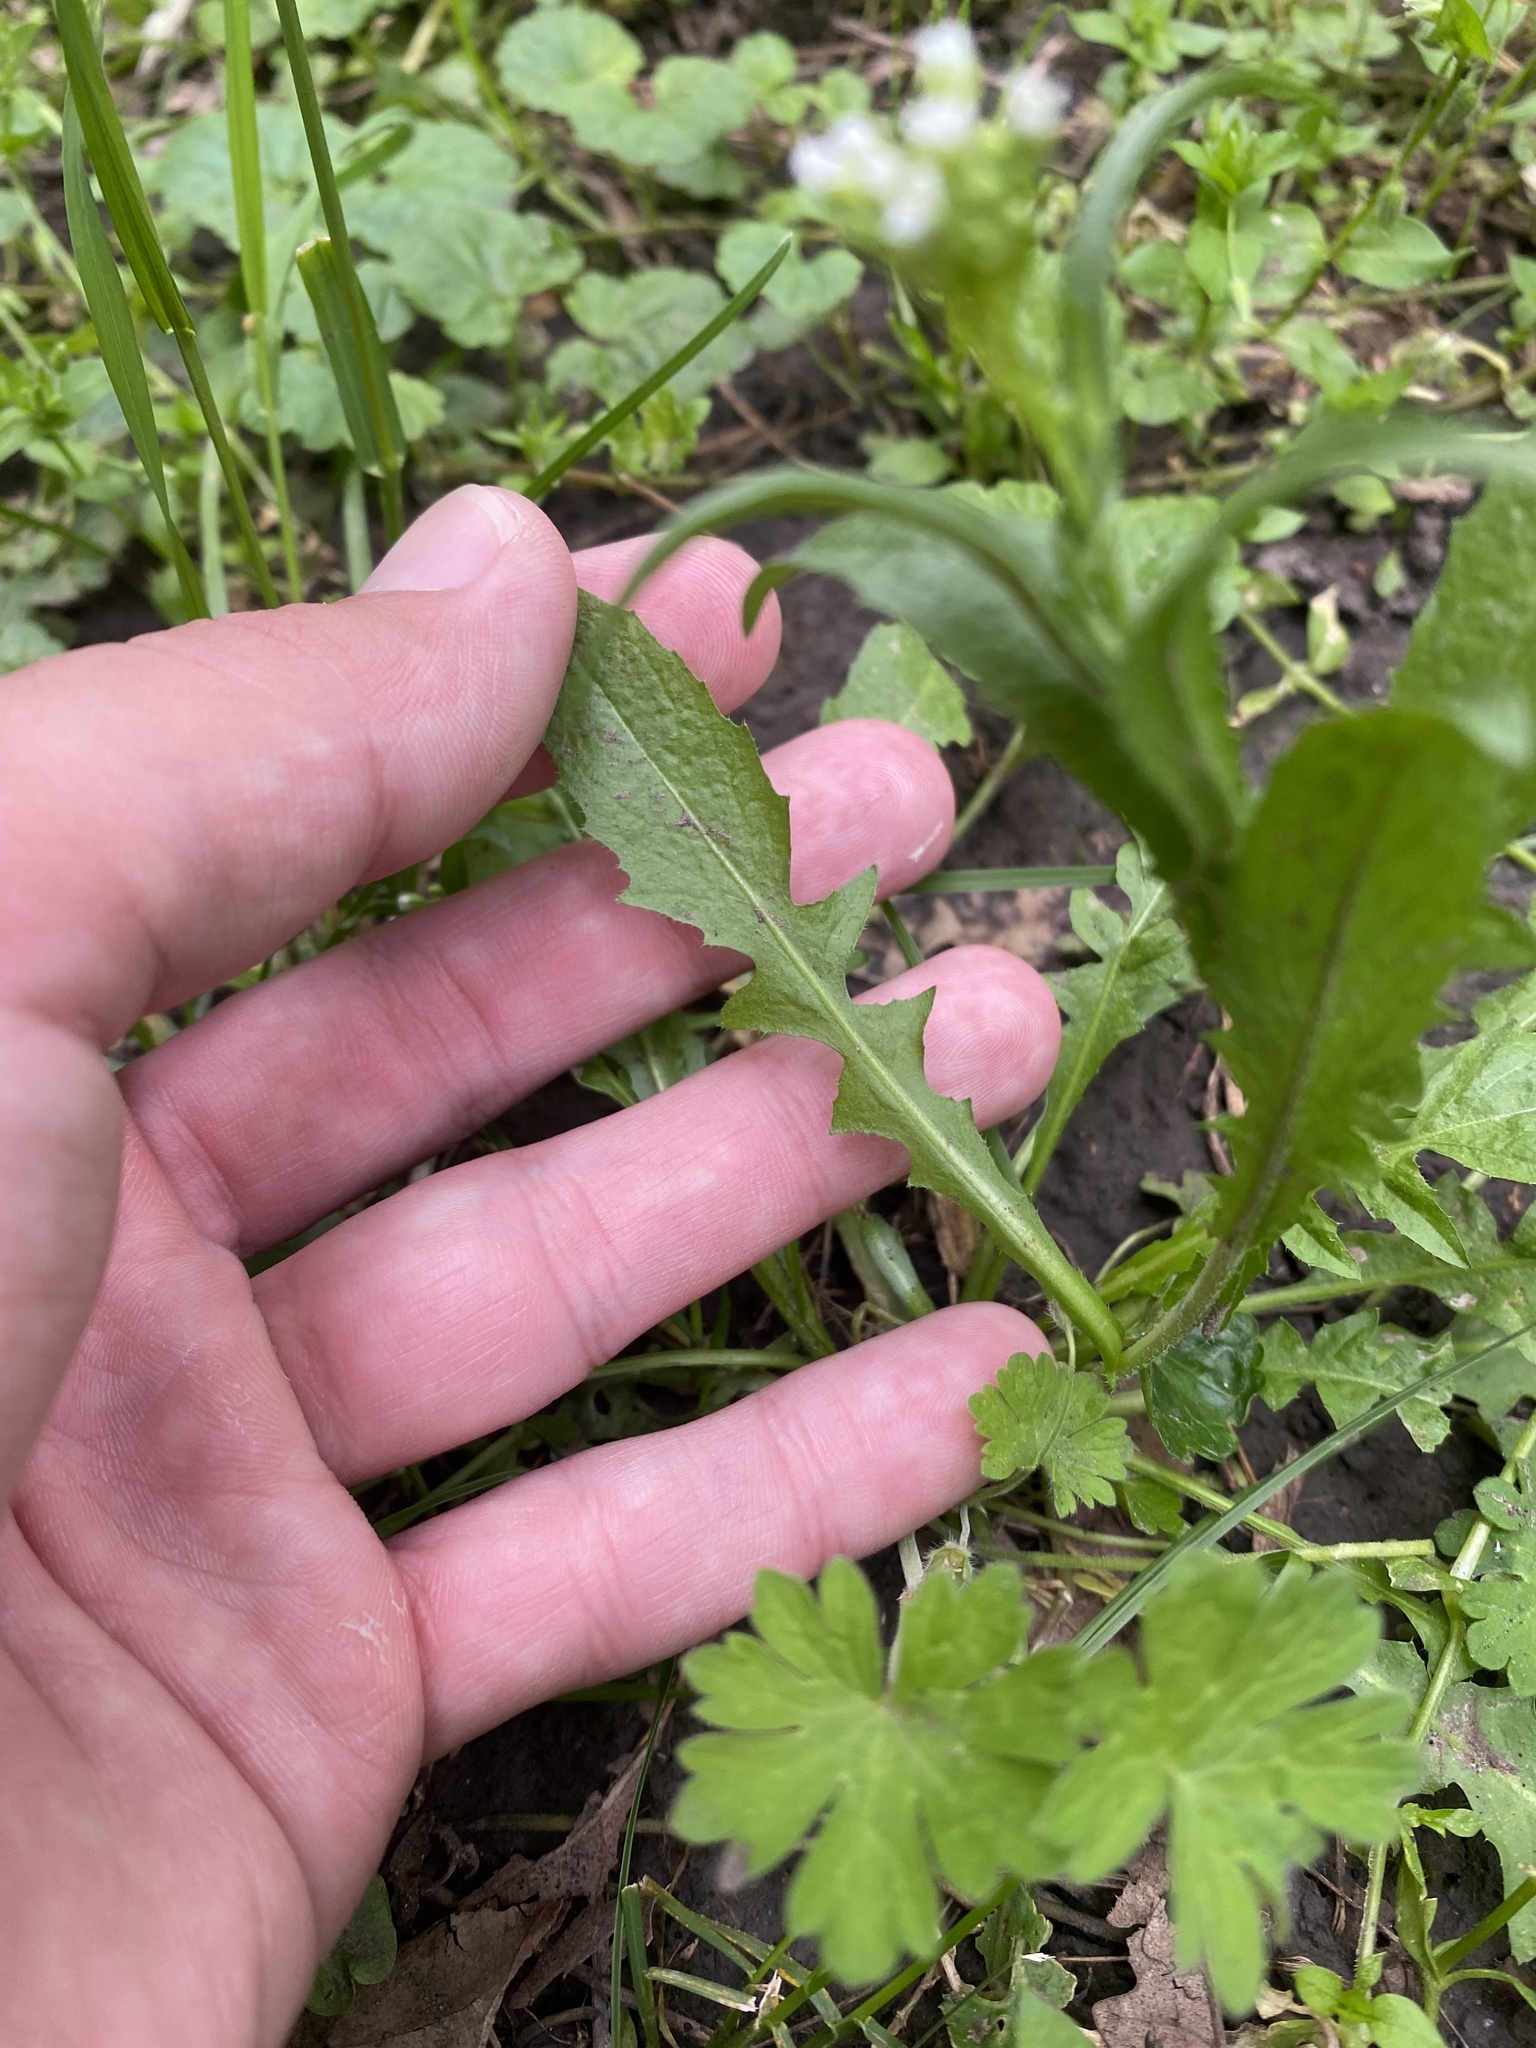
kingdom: Plantae
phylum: Tracheophyta
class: Magnoliopsida
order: Brassicales
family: Brassicaceae
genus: Capsella
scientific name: Capsella bursa-pastoris
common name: Shepherd's purse
